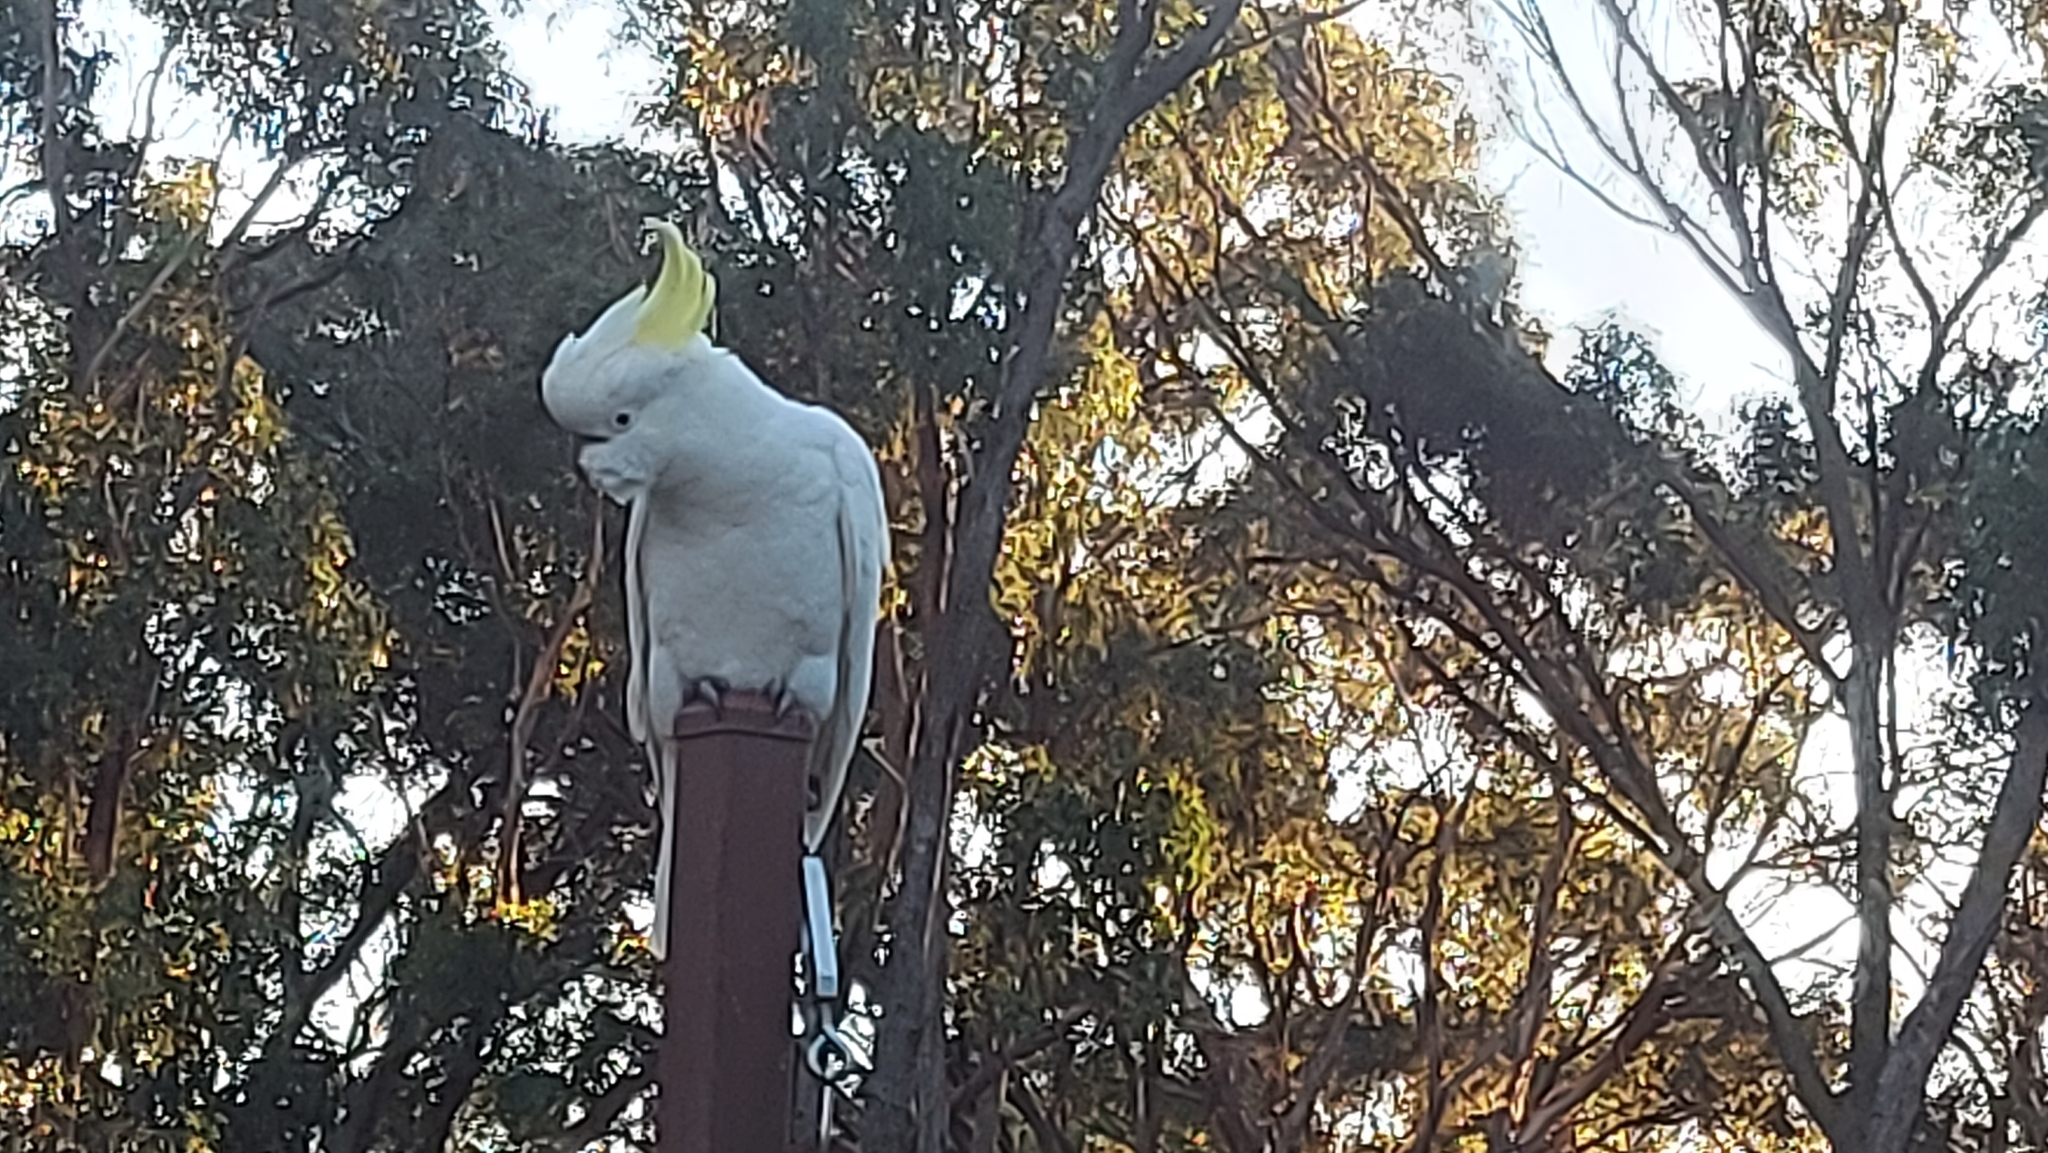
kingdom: Animalia
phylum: Chordata
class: Aves
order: Psittaciformes
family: Psittacidae
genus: Cacatua
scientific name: Cacatua galerita
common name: Sulphur-crested cockatoo
